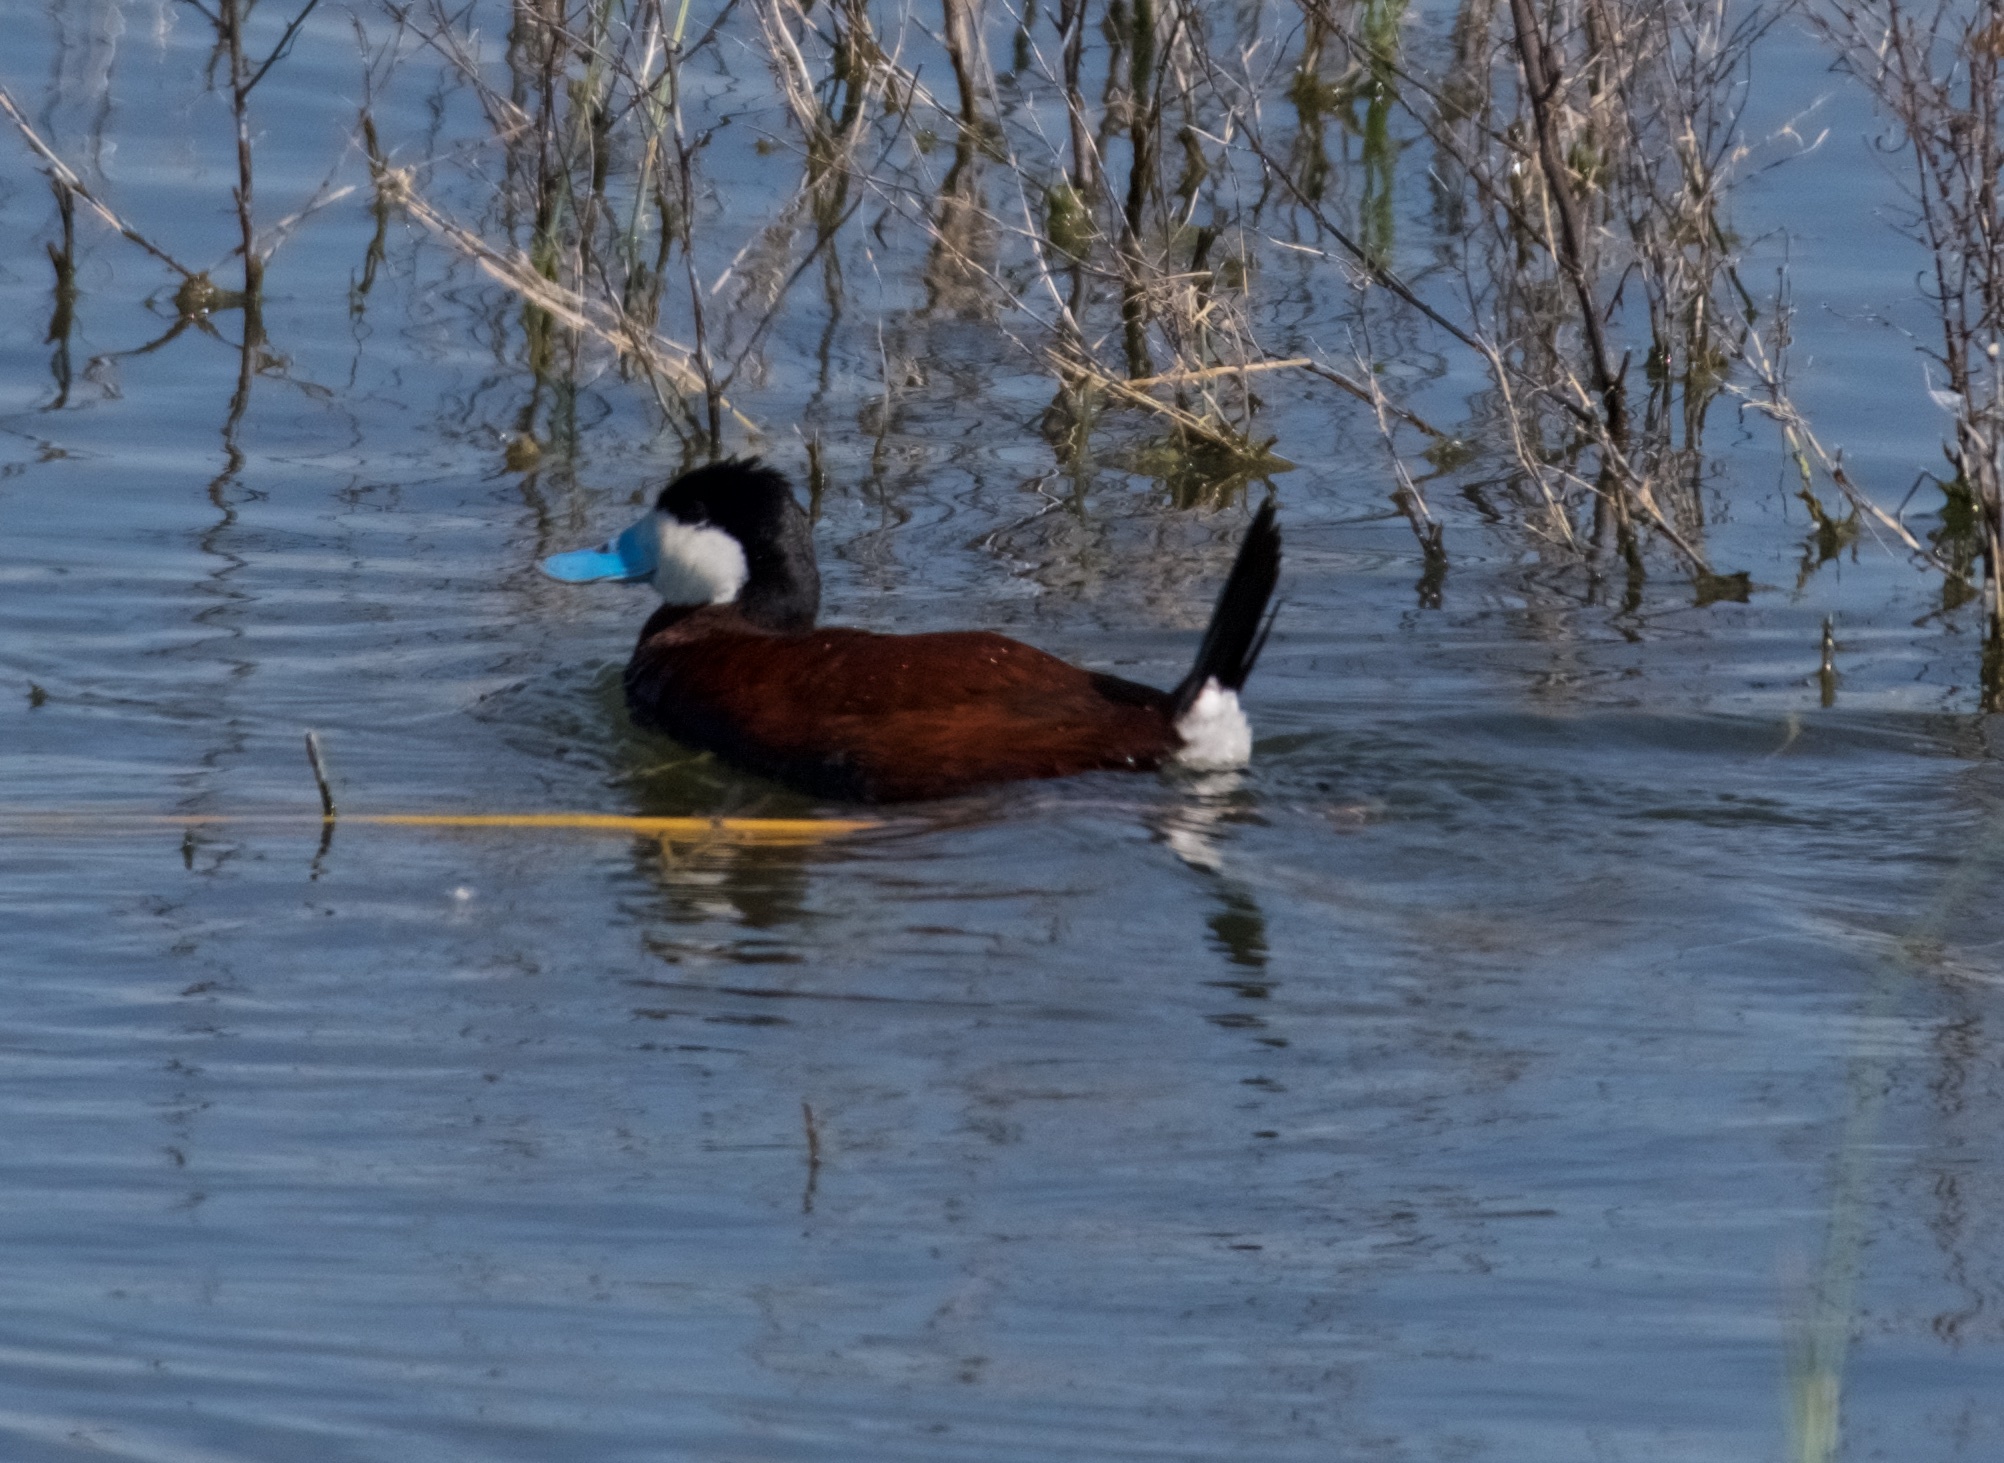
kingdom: Animalia
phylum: Chordata
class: Aves
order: Anseriformes
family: Anatidae
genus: Oxyura
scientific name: Oxyura jamaicensis
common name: Ruddy duck
